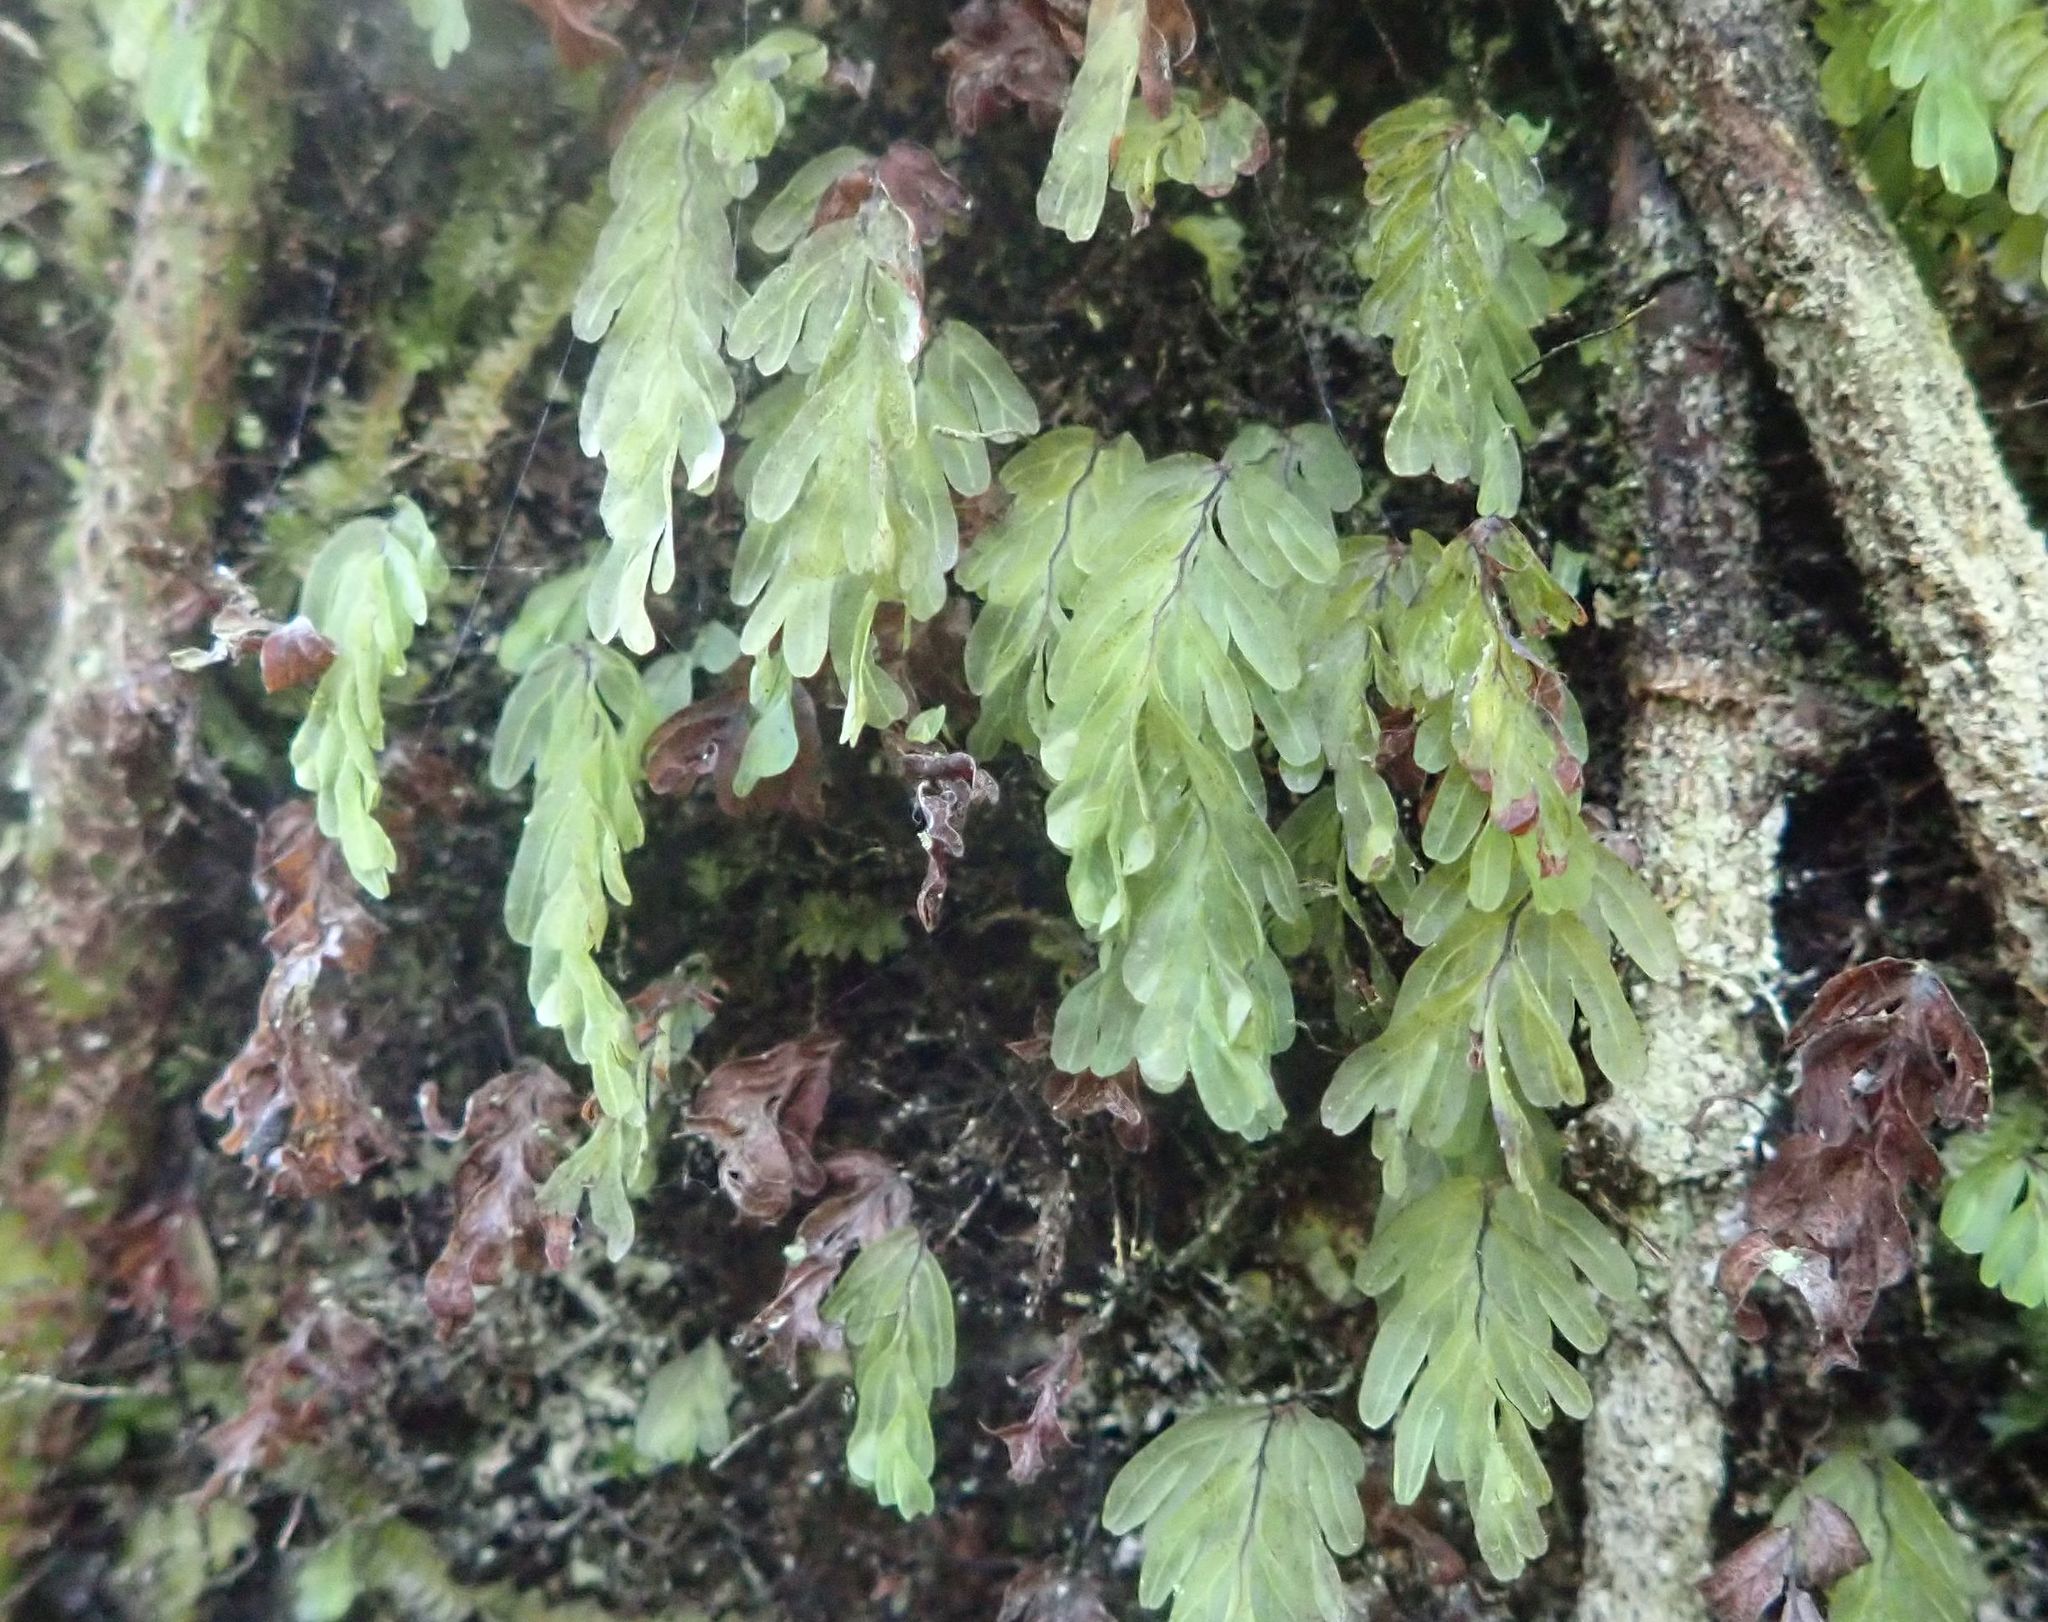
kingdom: Plantae
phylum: Tracheophyta
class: Polypodiopsida
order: Hymenophyllales
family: Hymenophyllaceae
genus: Hymenophyllum
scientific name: Hymenophyllum rarum
